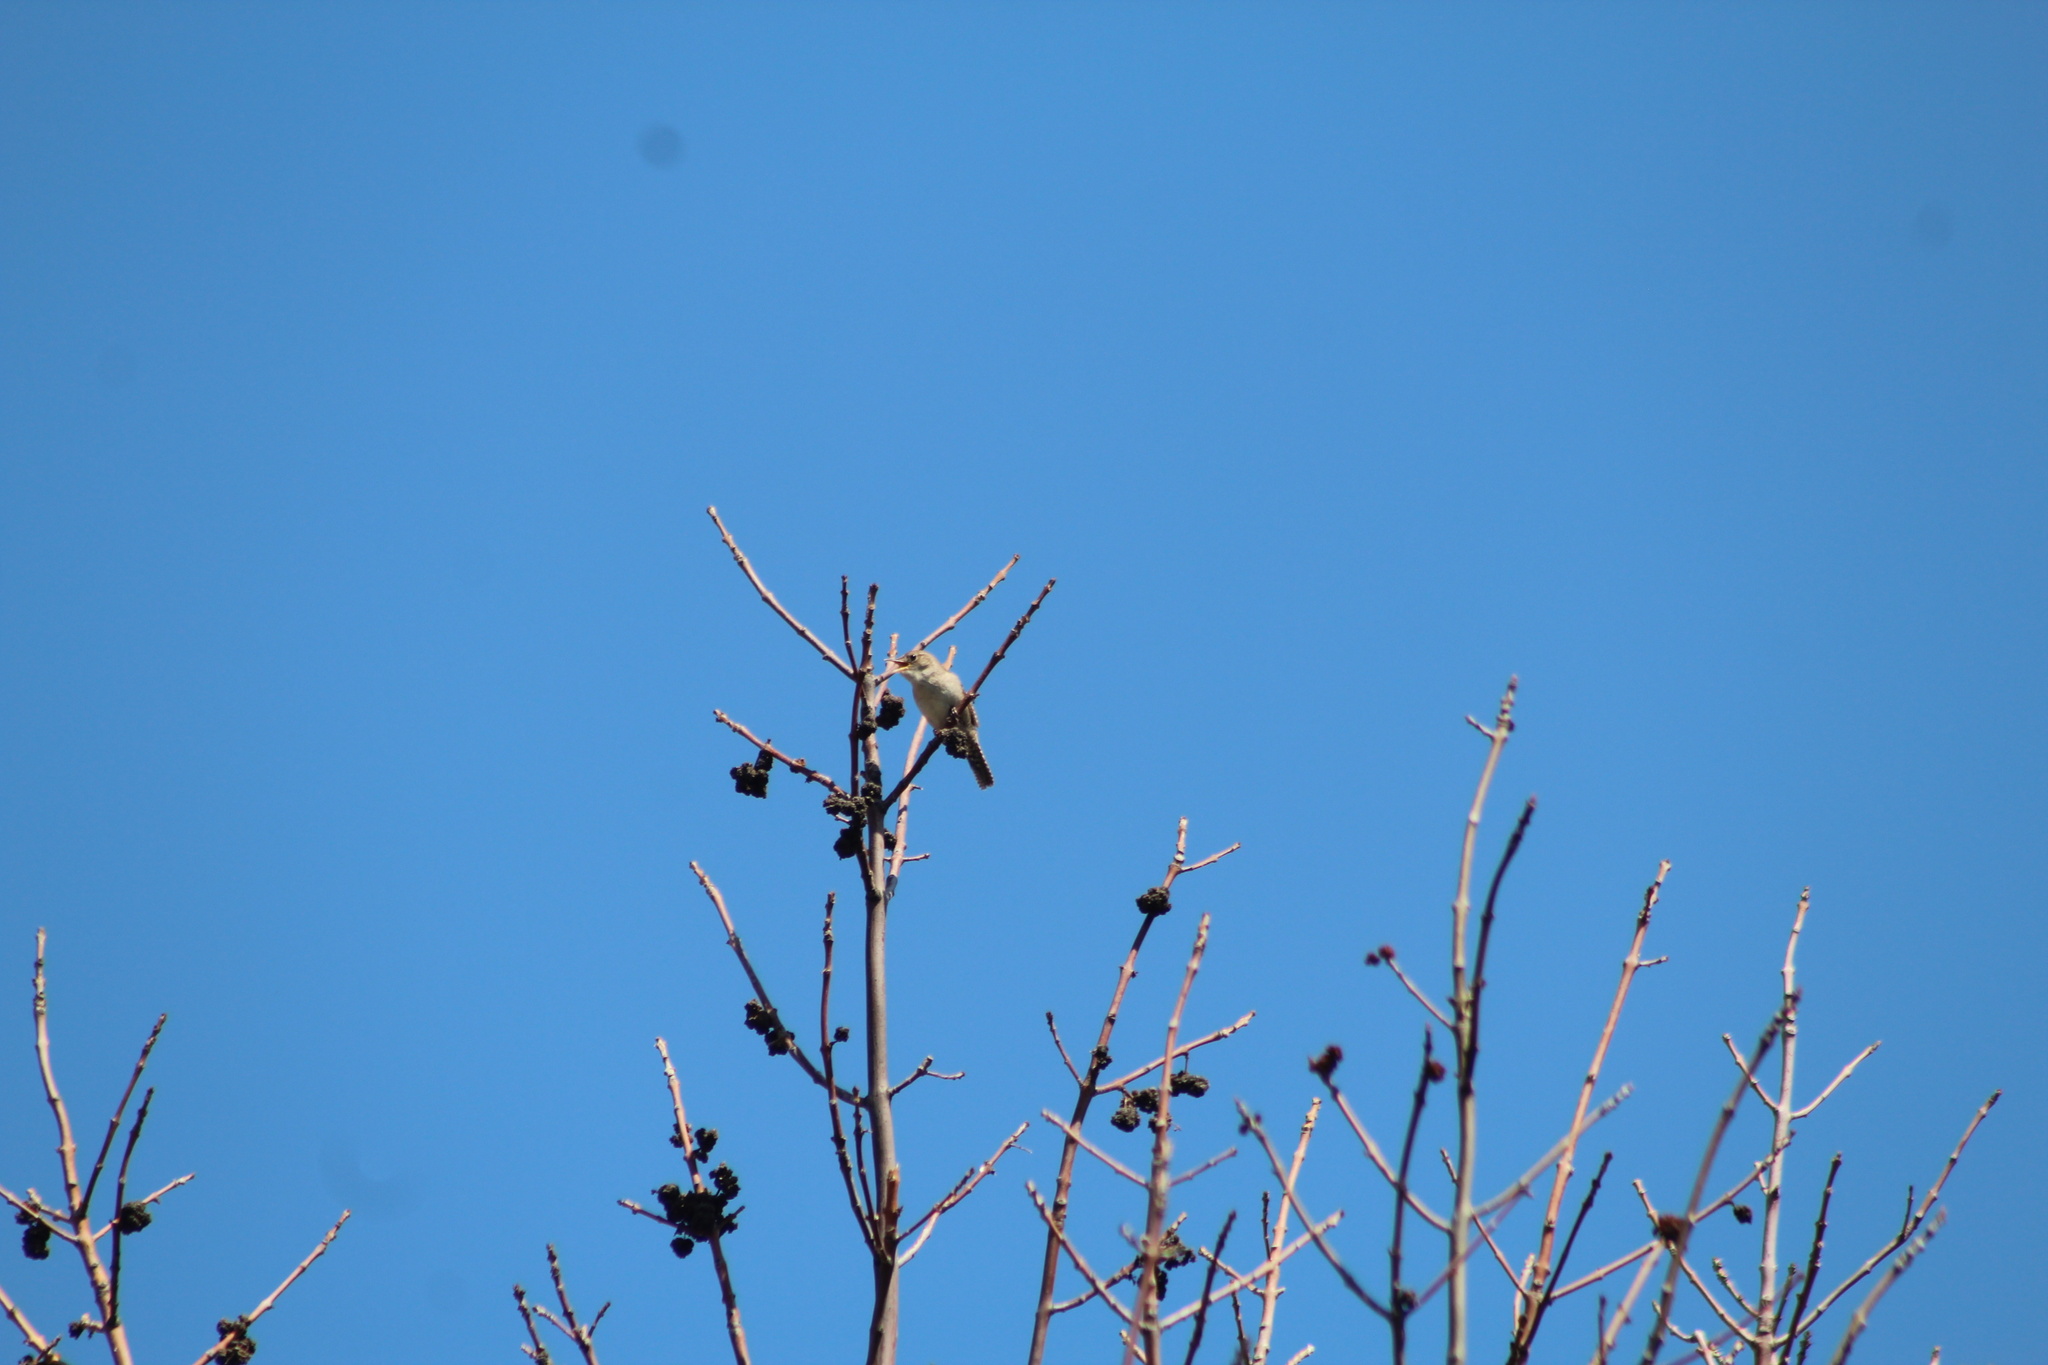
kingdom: Animalia
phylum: Chordata
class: Aves
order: Passeriformes
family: Troglodytidae
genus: Troglodytes
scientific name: Troglodytes aedon
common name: House wren
